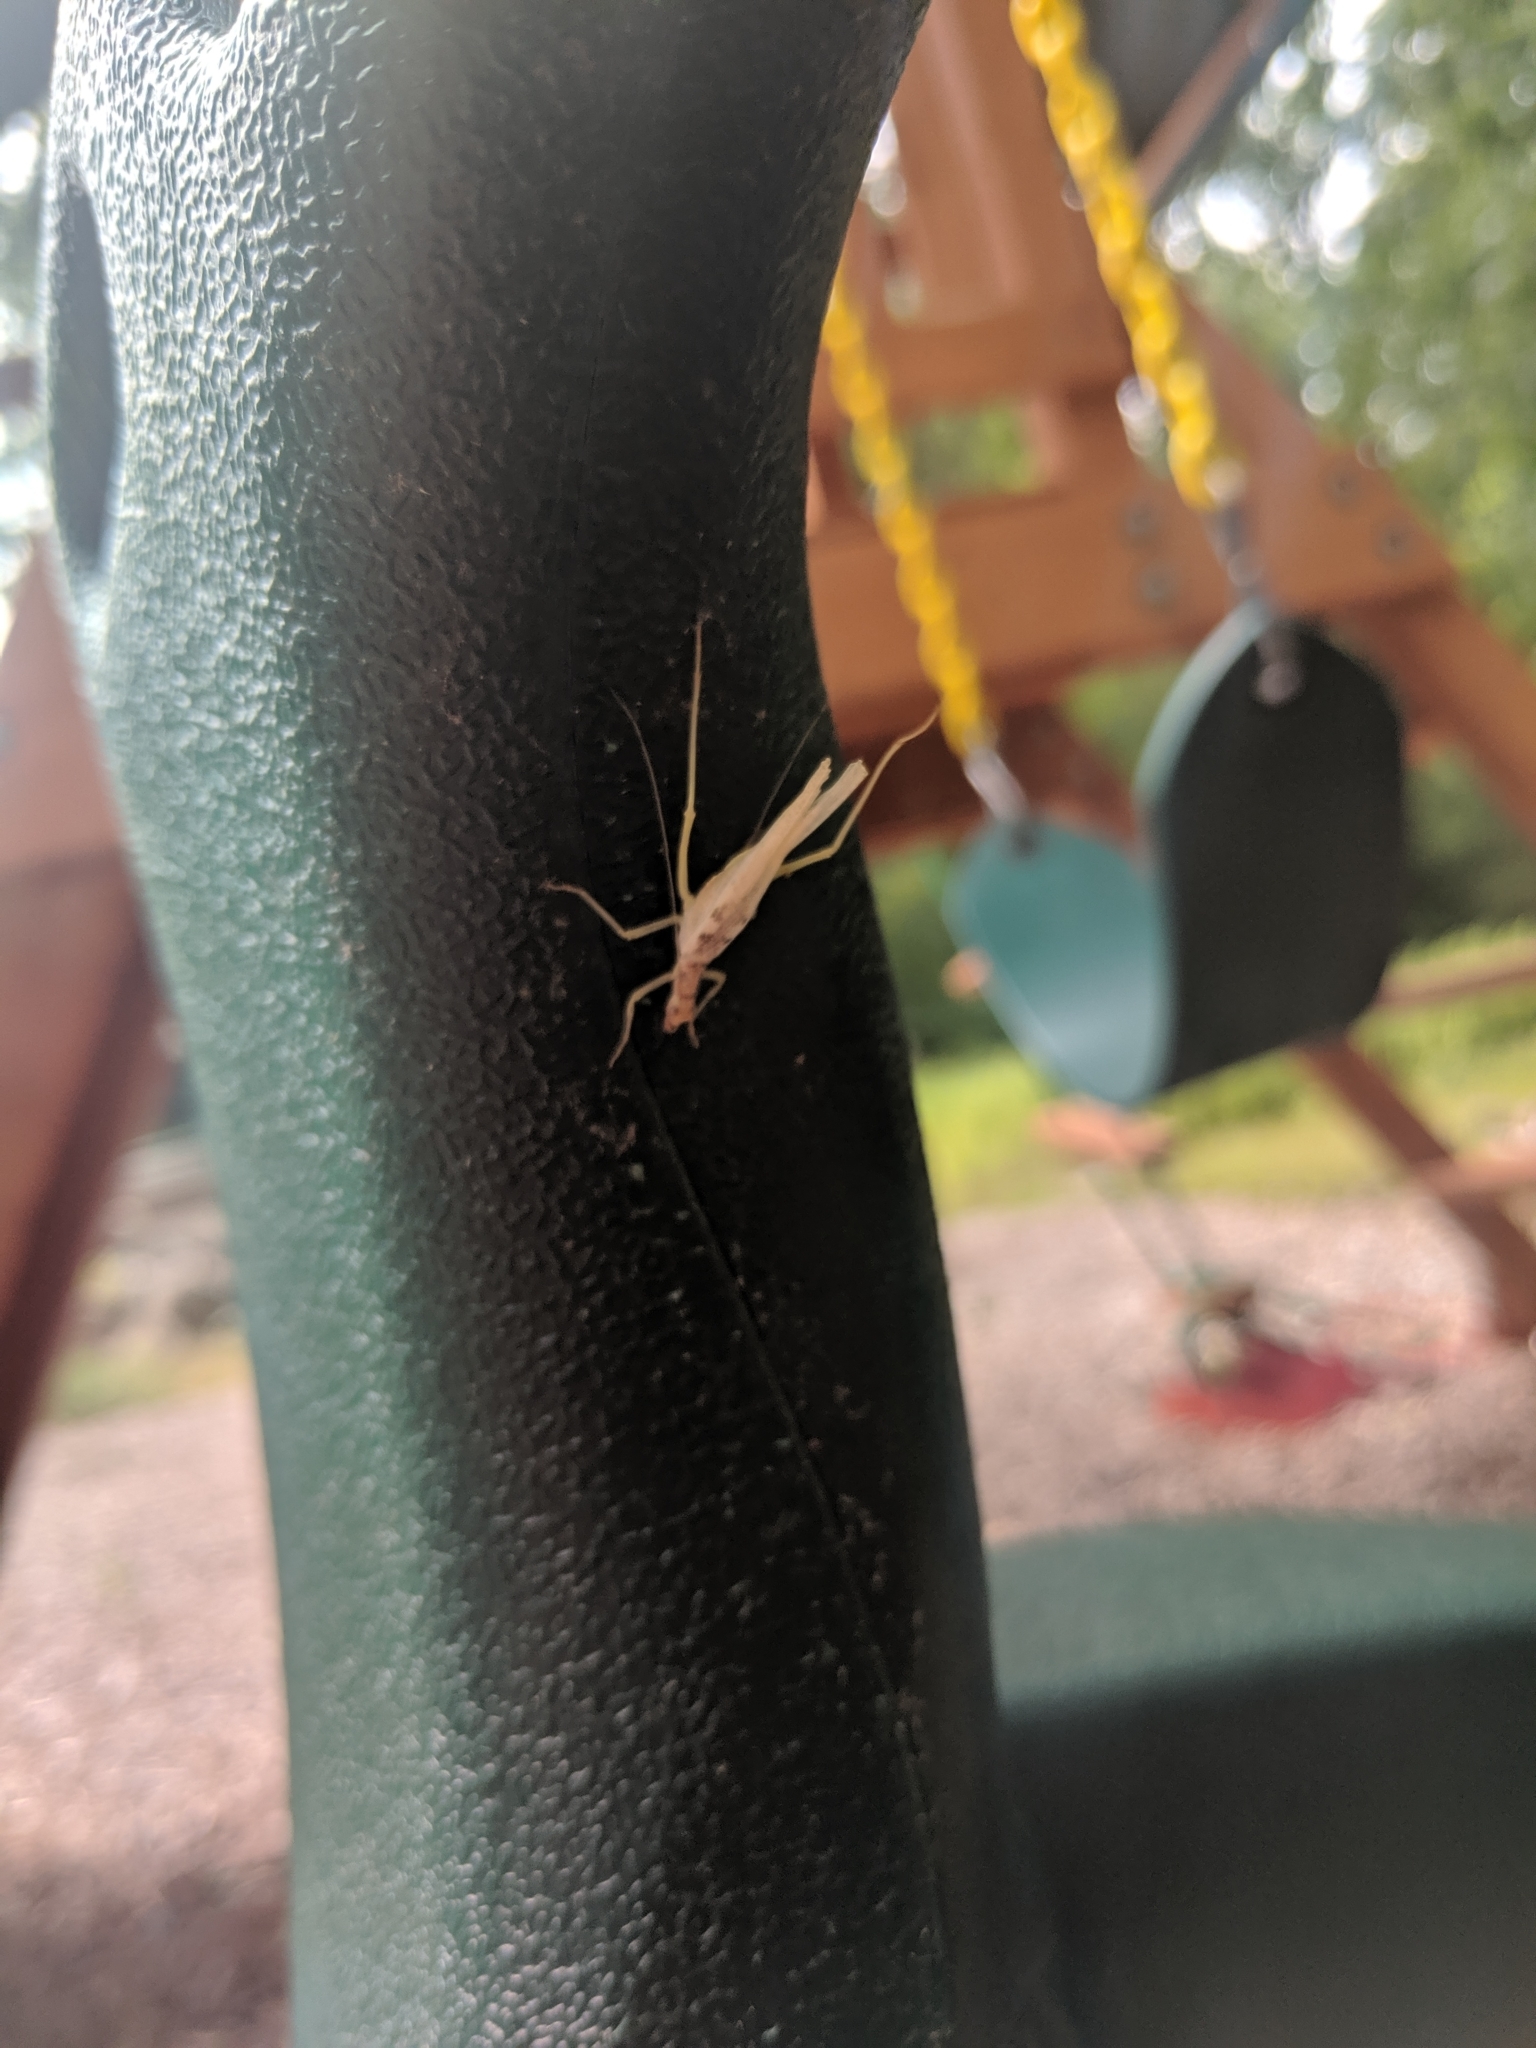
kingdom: Animalia
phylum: Arthropoda
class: Insecta
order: Orthoptera
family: Gryllidae
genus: Neoxabea
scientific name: Neoxabea bipunctata
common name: Two-spotted tree cricket
